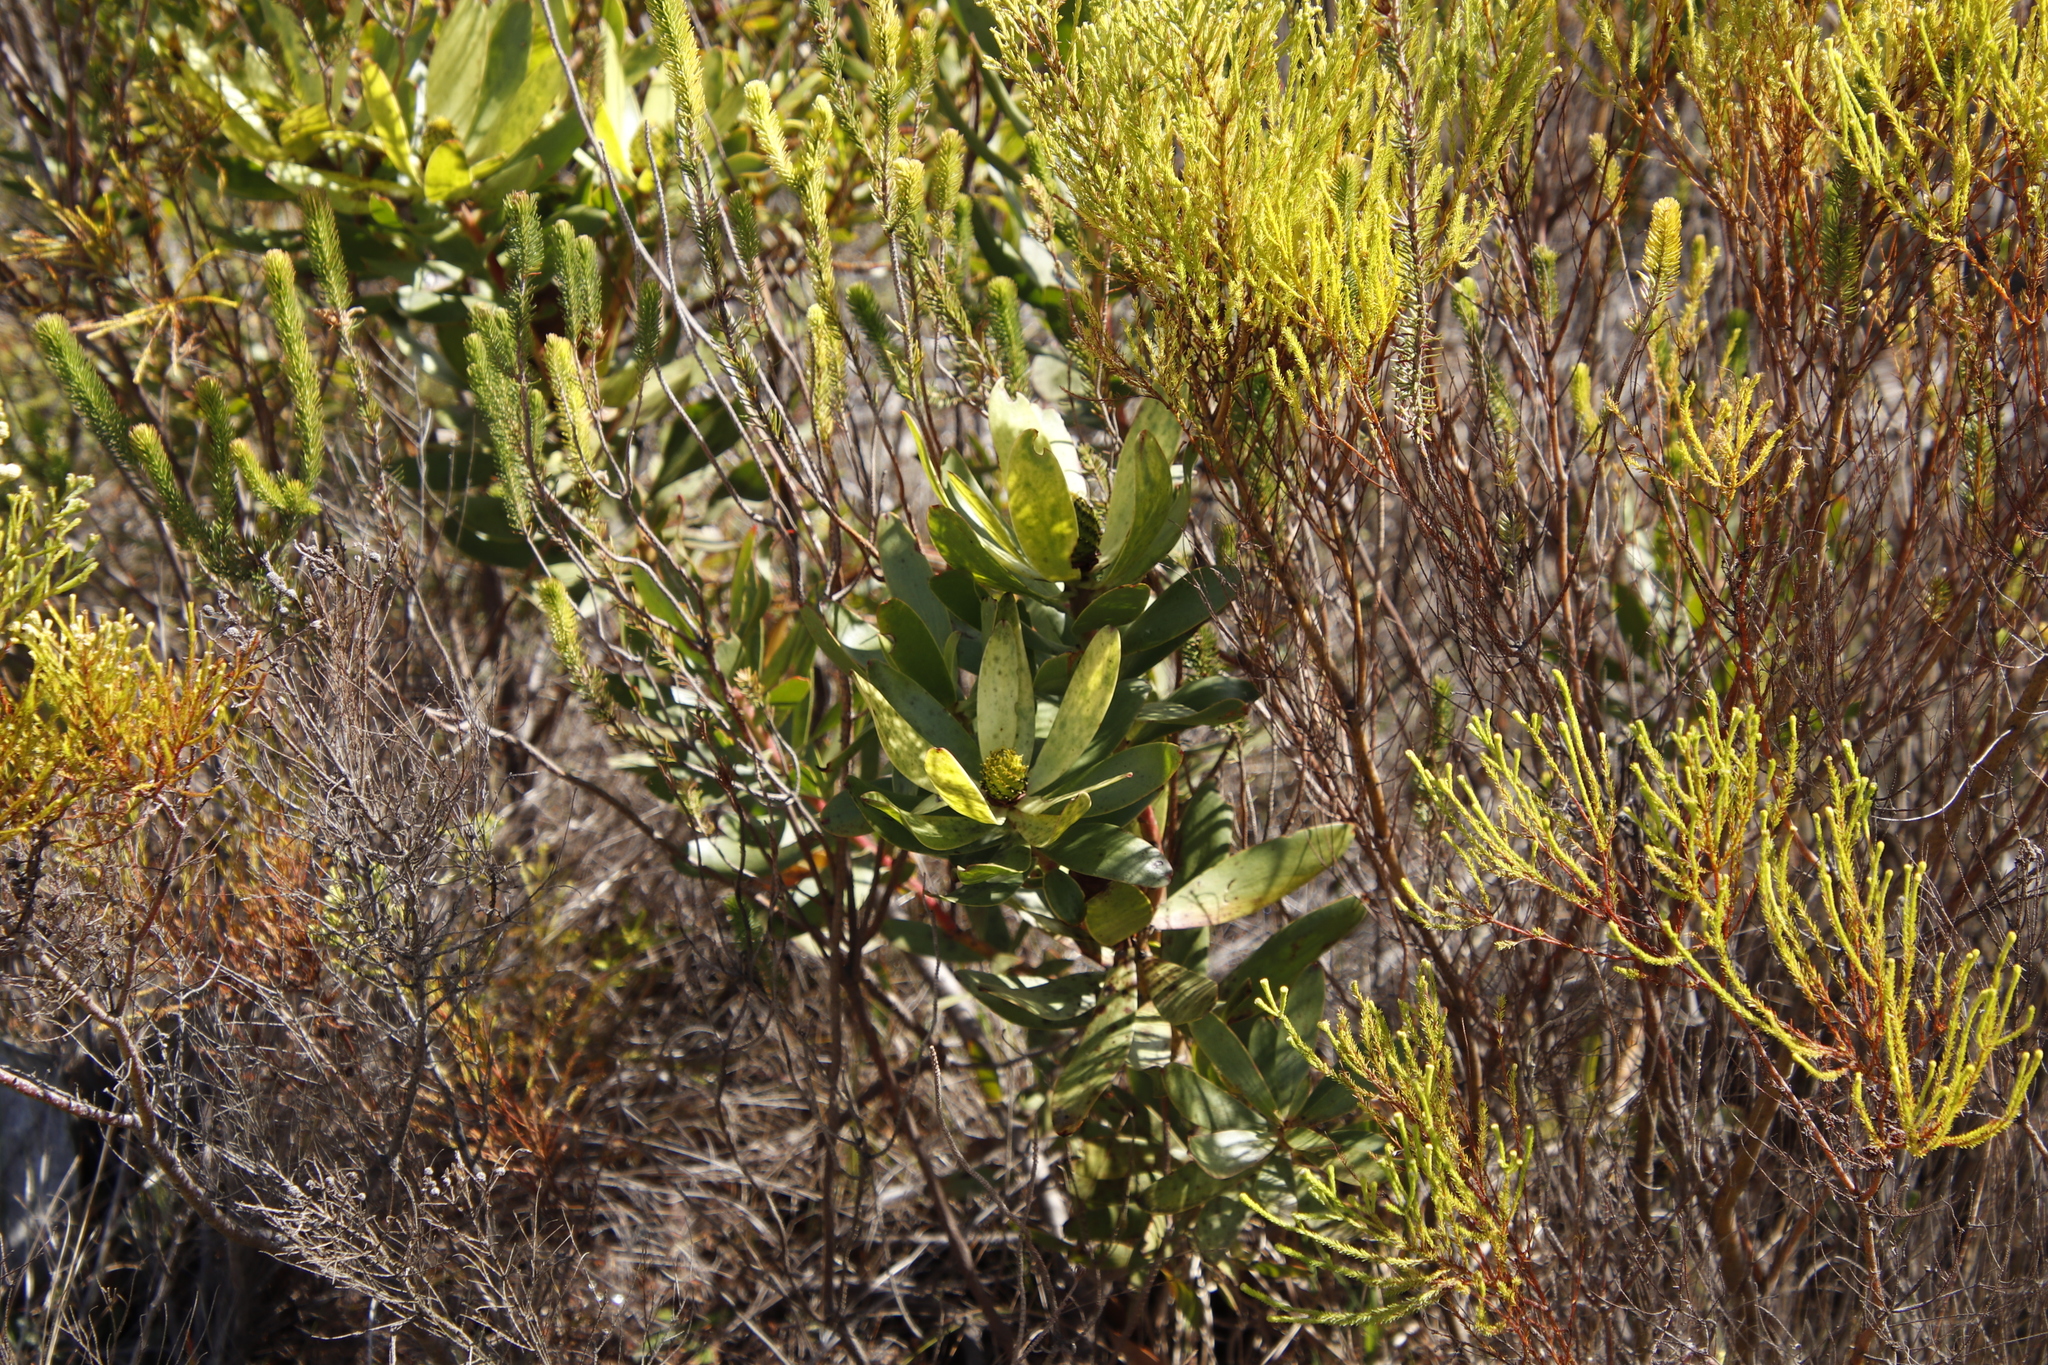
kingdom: Plantae
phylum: Tracheophyta
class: Magnoliopsida
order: Proteales
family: Proteaceae
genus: Leucadendron
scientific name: Leucadendron gandogeri
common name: Broad-leaf conebush
